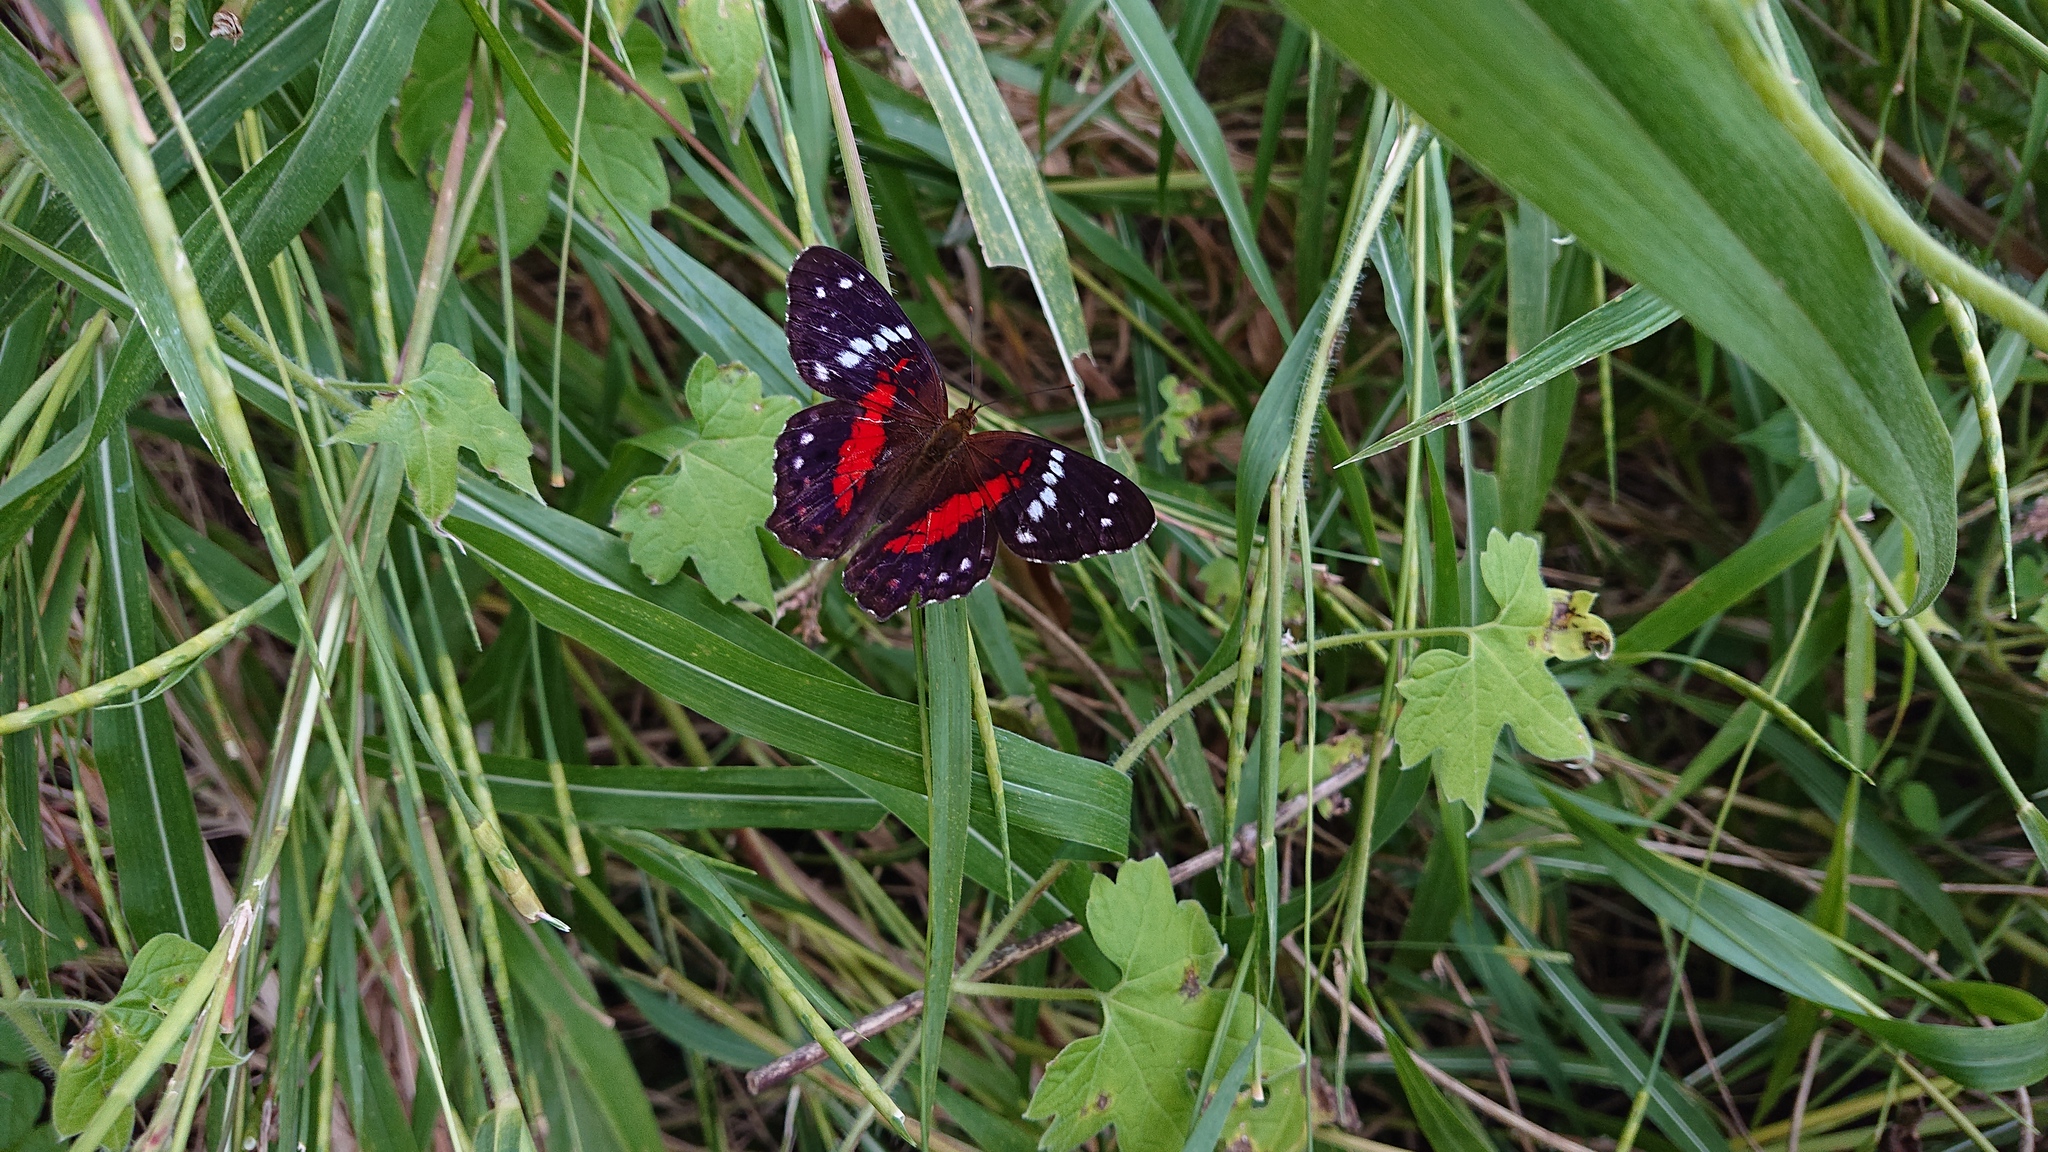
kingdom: Animalia
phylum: Arthropoda
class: Insecta
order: Lepidoptera
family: Nymphalidae
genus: Anartia
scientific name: Anartia amathea
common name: Red peacock
